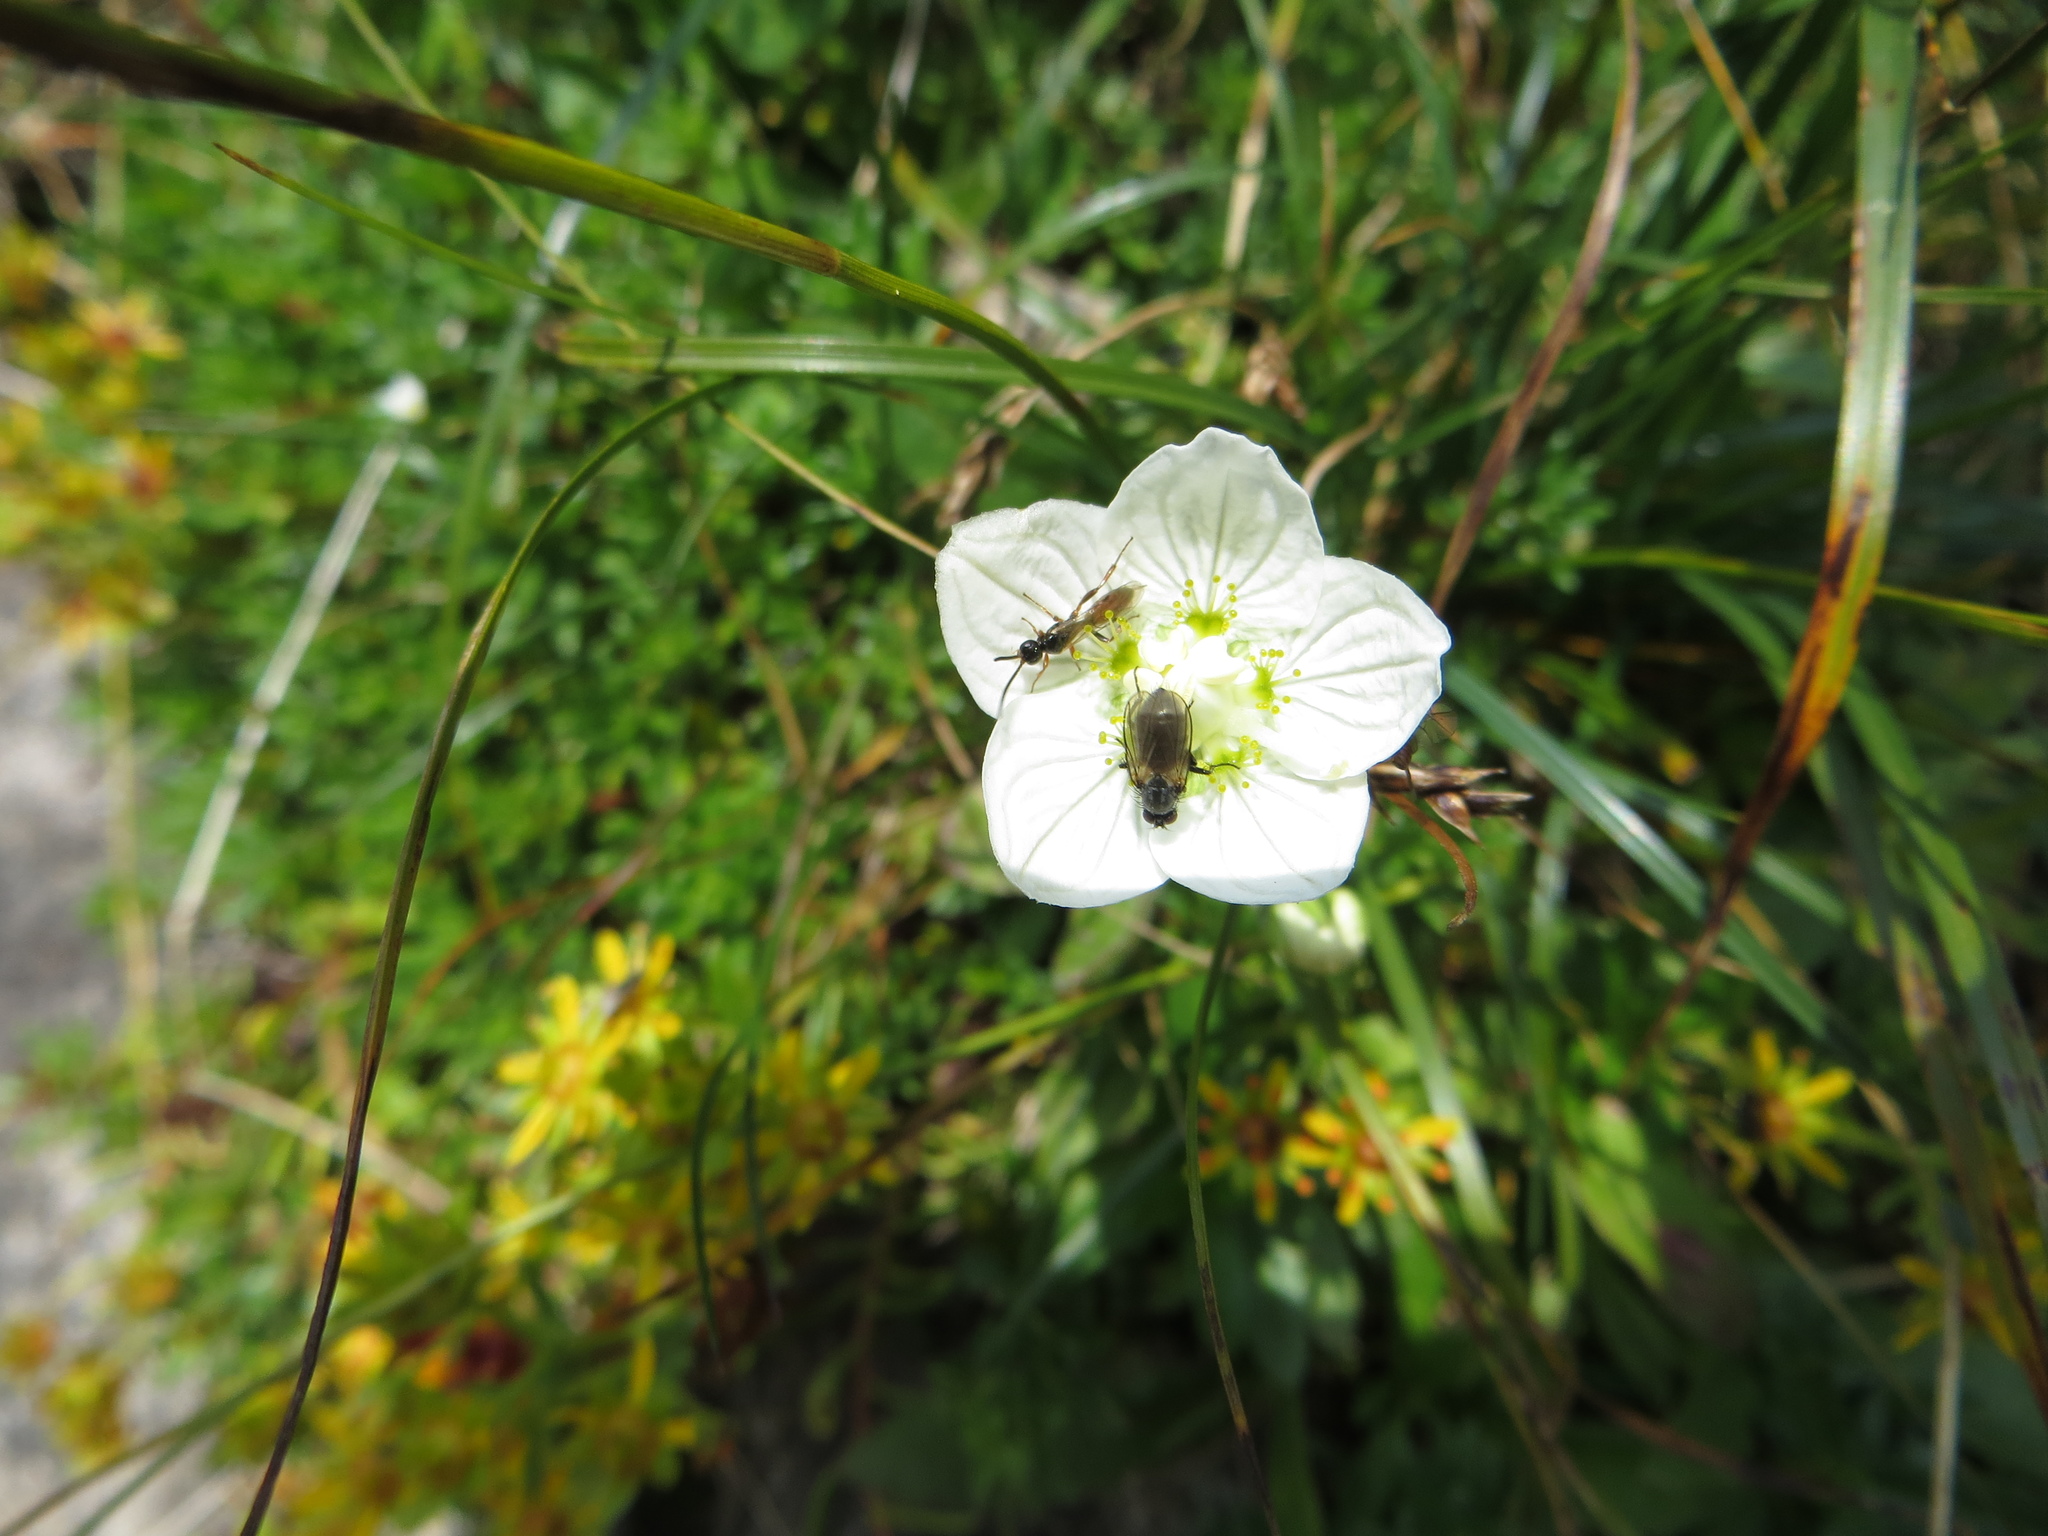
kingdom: Plantae
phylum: Tracheophyta
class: Magnoliopsida
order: Celastrales
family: Parnassiaceae
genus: Parnassia
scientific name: Parnassia palustris
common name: Grass-of-parnassus
